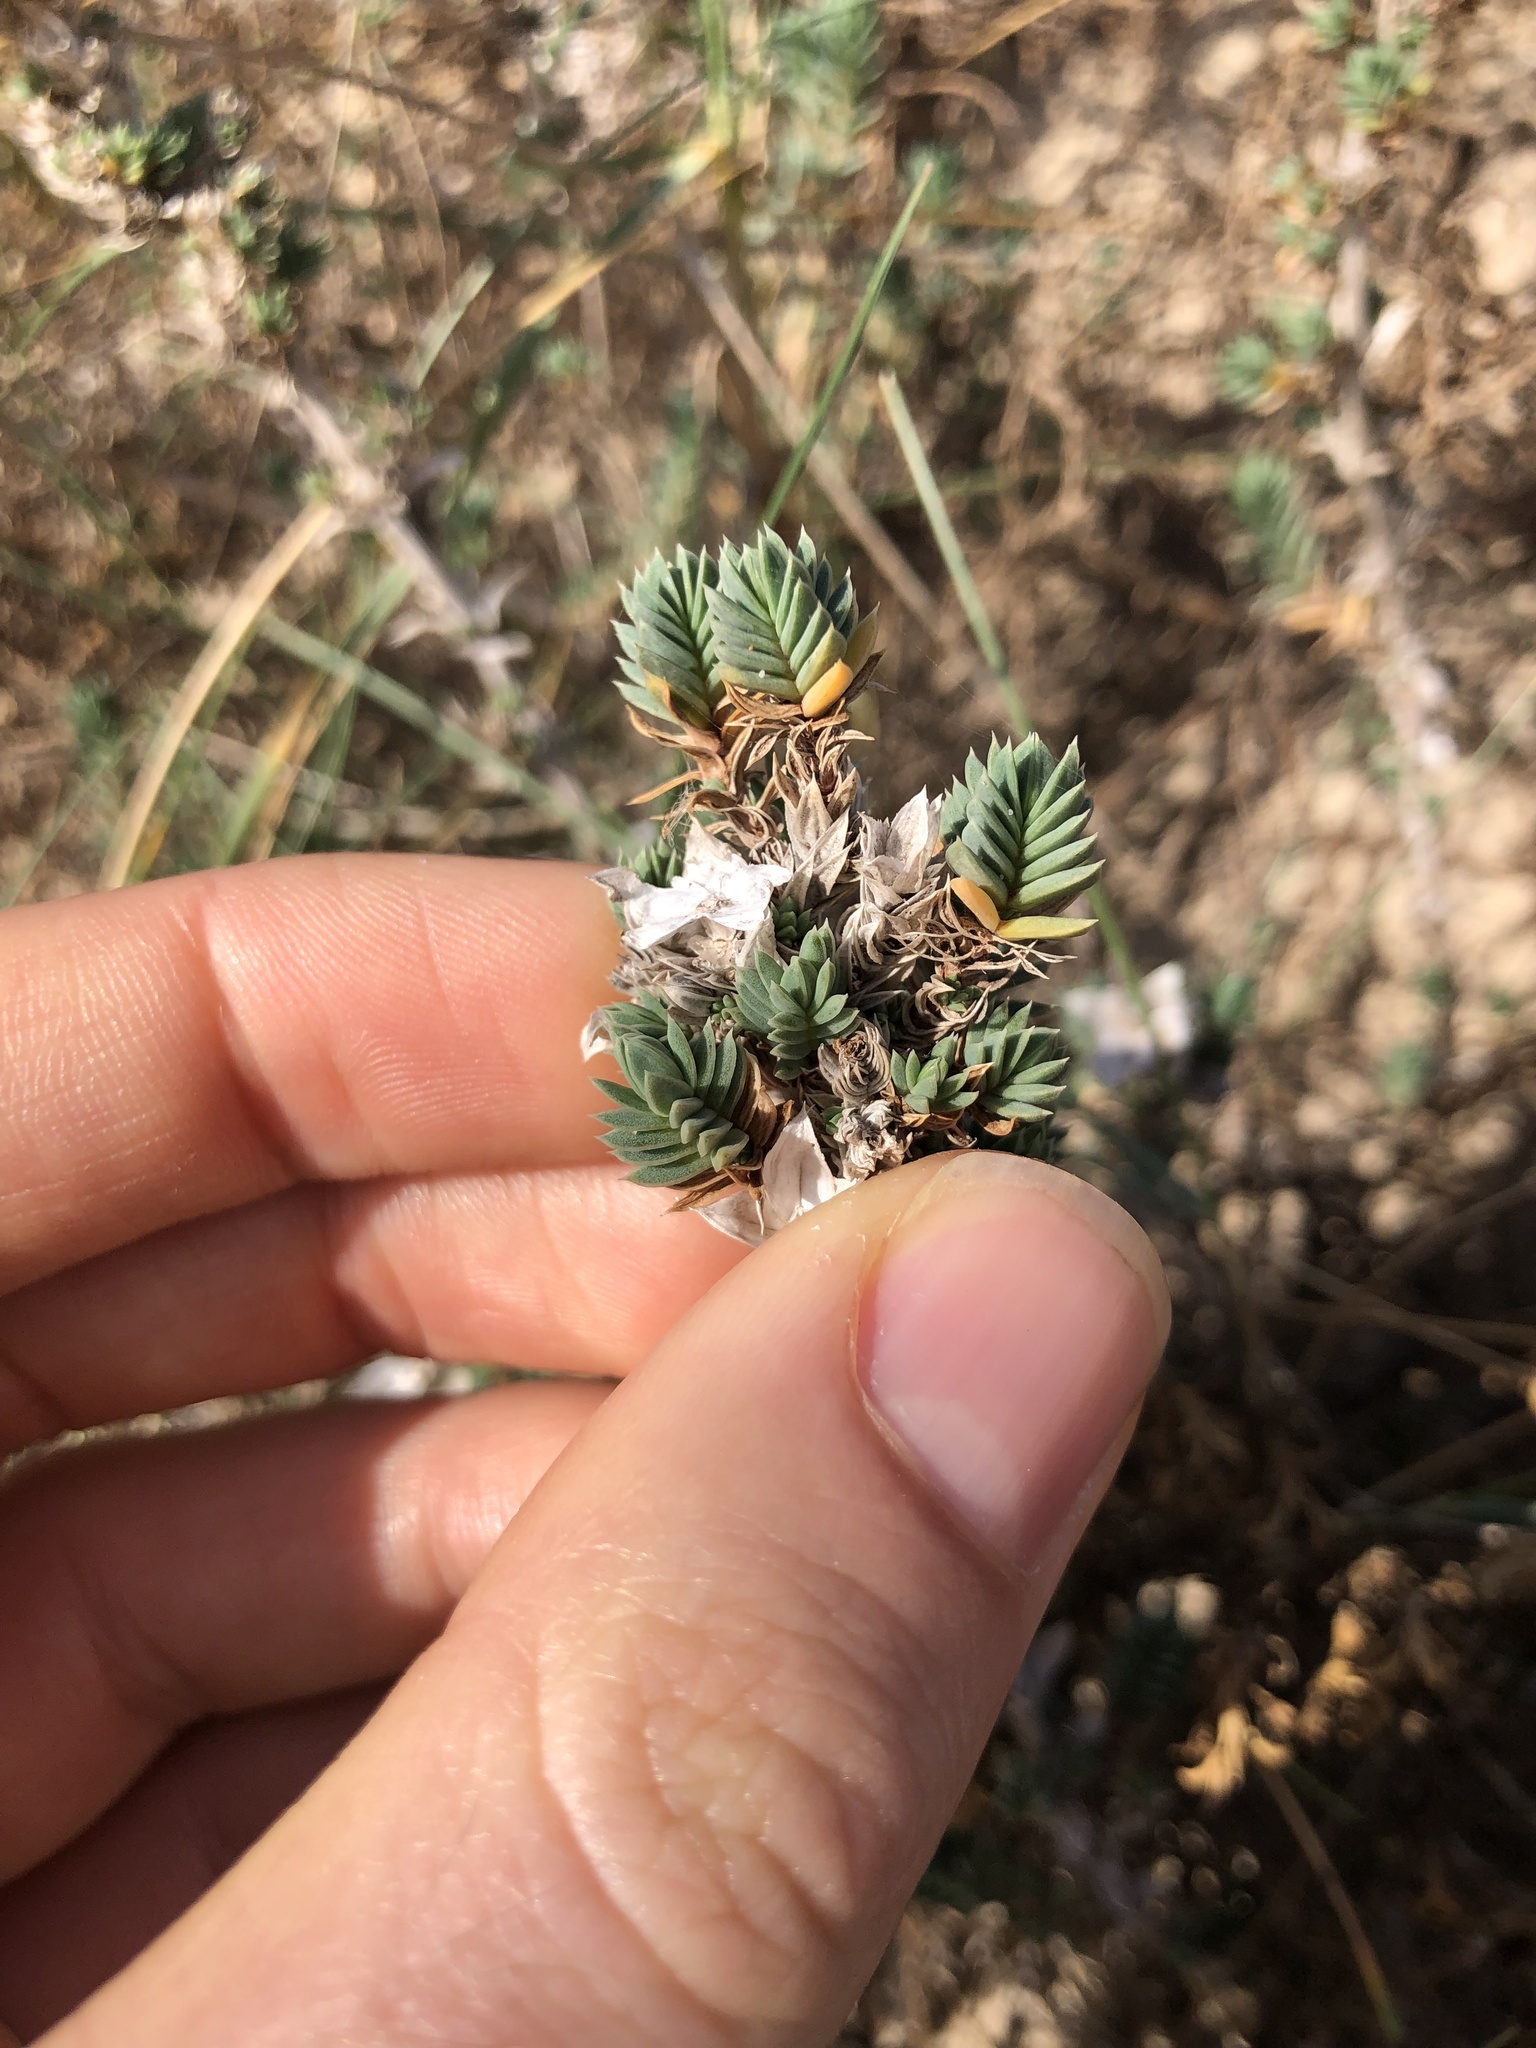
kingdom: Plantae
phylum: Tracheophyta
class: Magnoliopsida
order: Gentianales
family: Rubiaceae
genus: Crucianella
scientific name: Crucianella maritima
